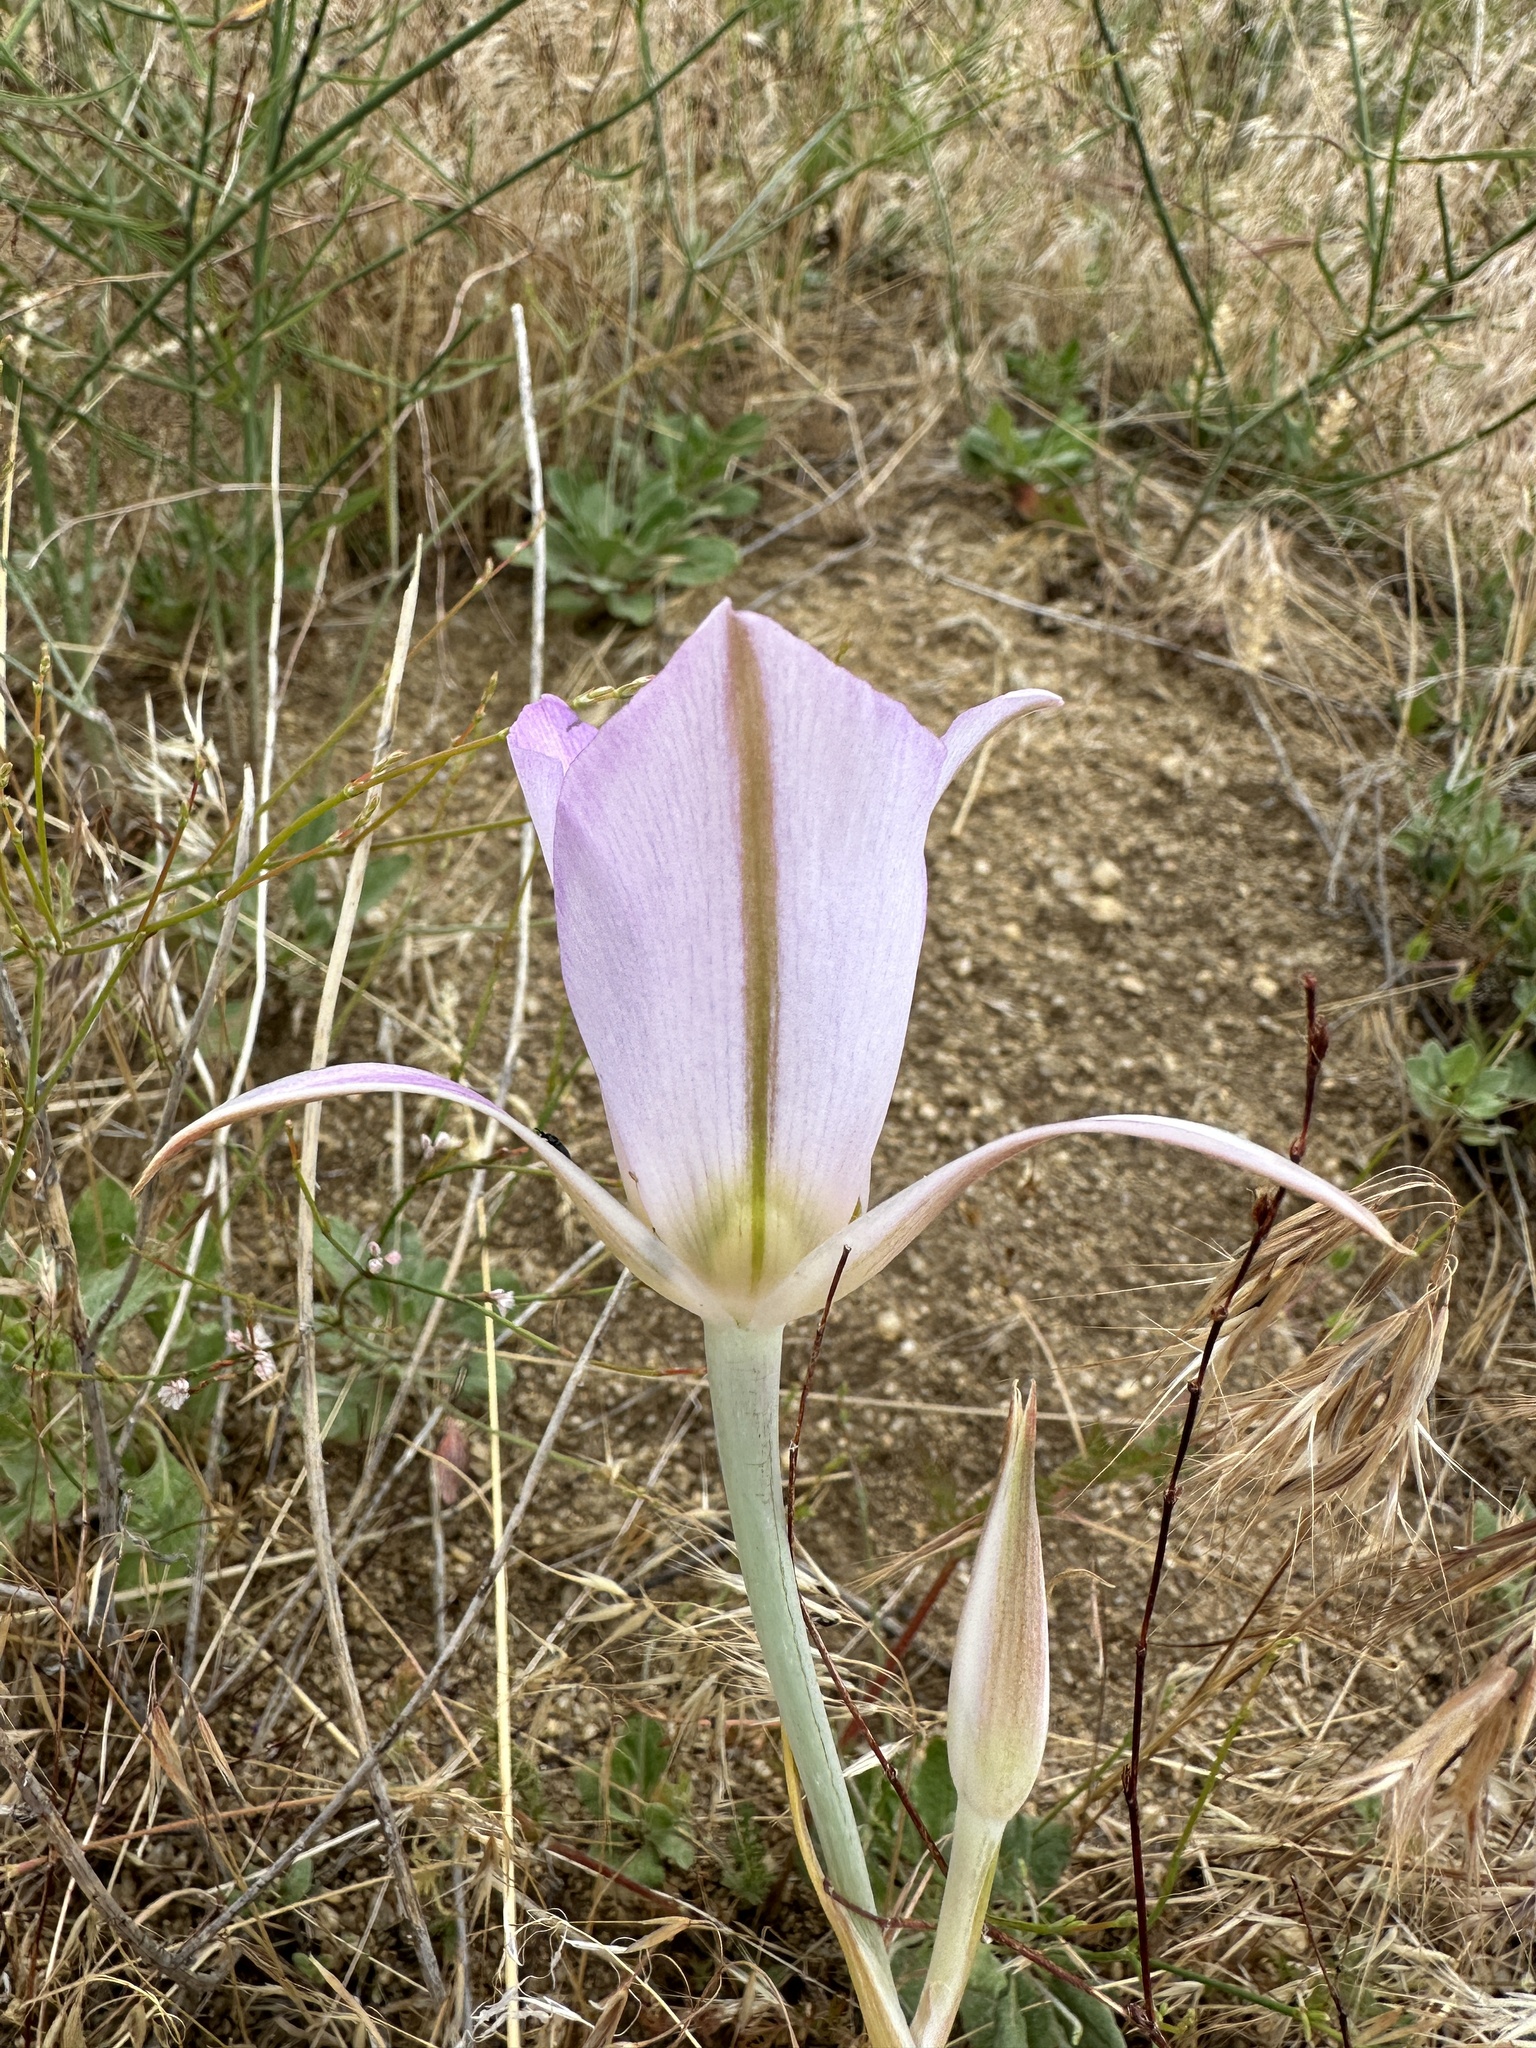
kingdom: Plantae
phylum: Tracheophyta
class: Liliopsida
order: Liliales
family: Liliaceae
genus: Calochortus
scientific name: Calochortus macrocarpus
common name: Green-band mariposa lily
